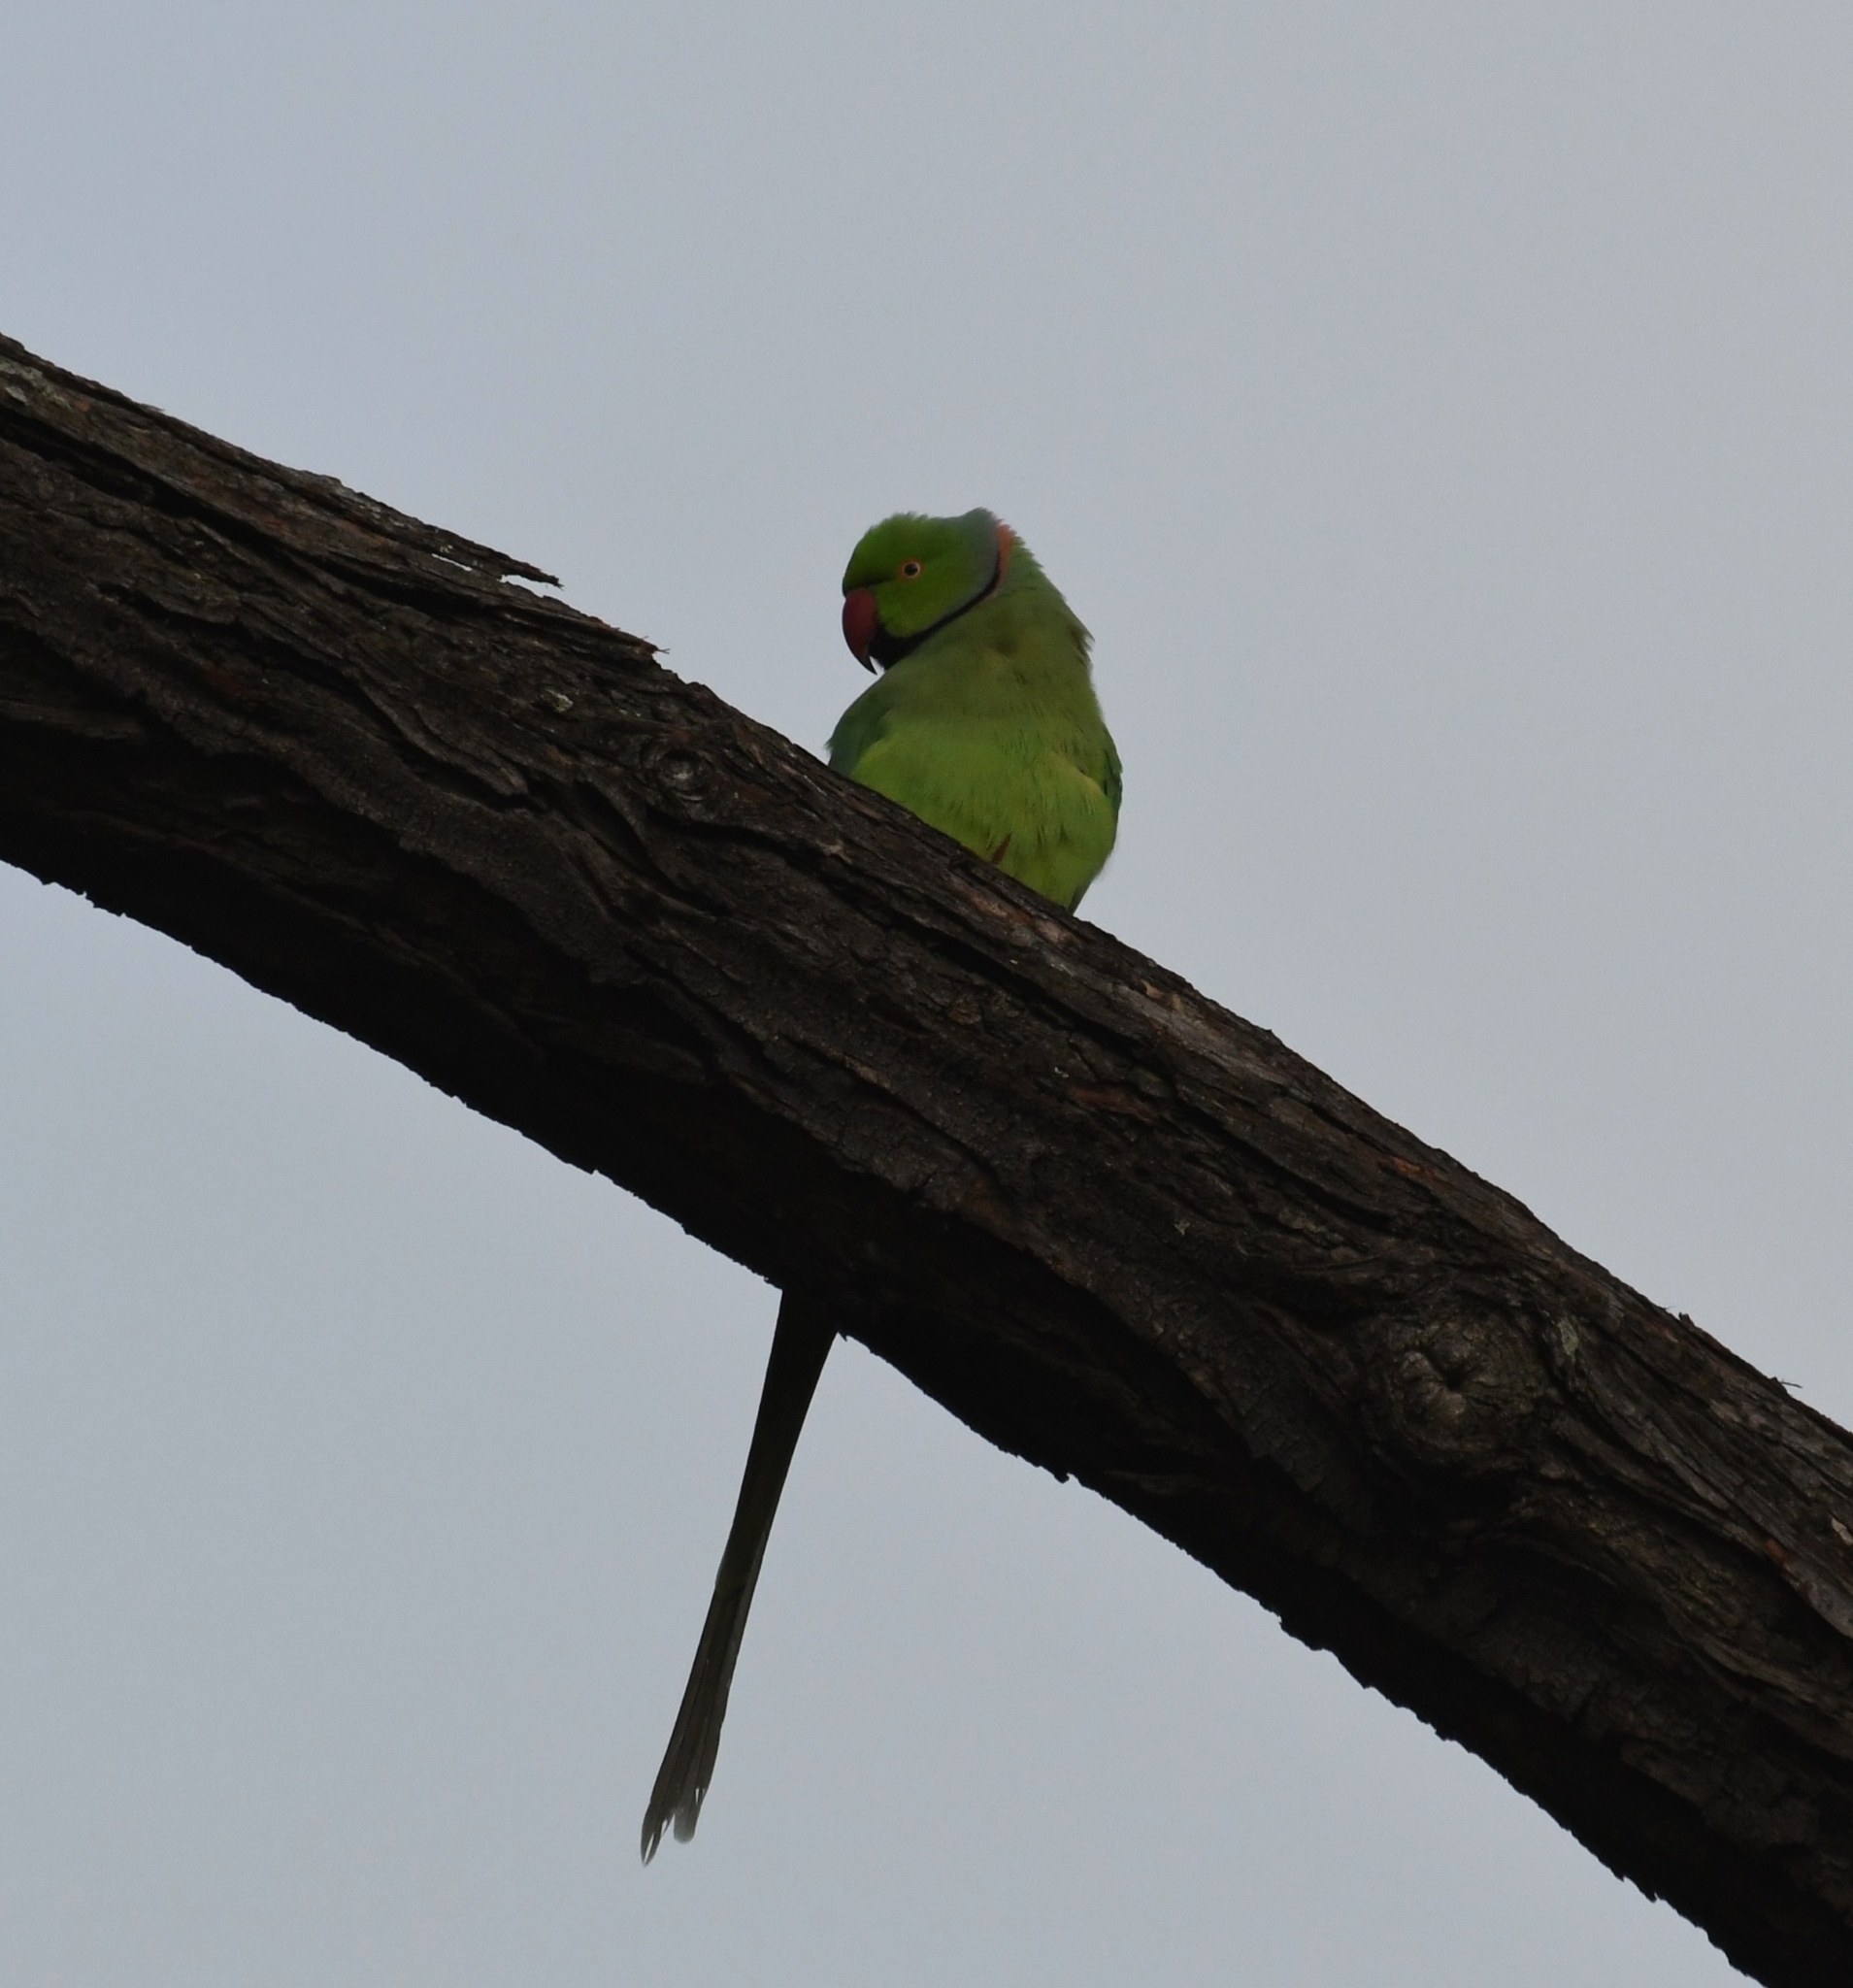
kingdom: Animalia
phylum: Chordata
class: Aves
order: Psittaciformes
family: Psittacidae
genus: Psittacula
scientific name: Psittacula krameri
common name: Rose-ringed parakeet
